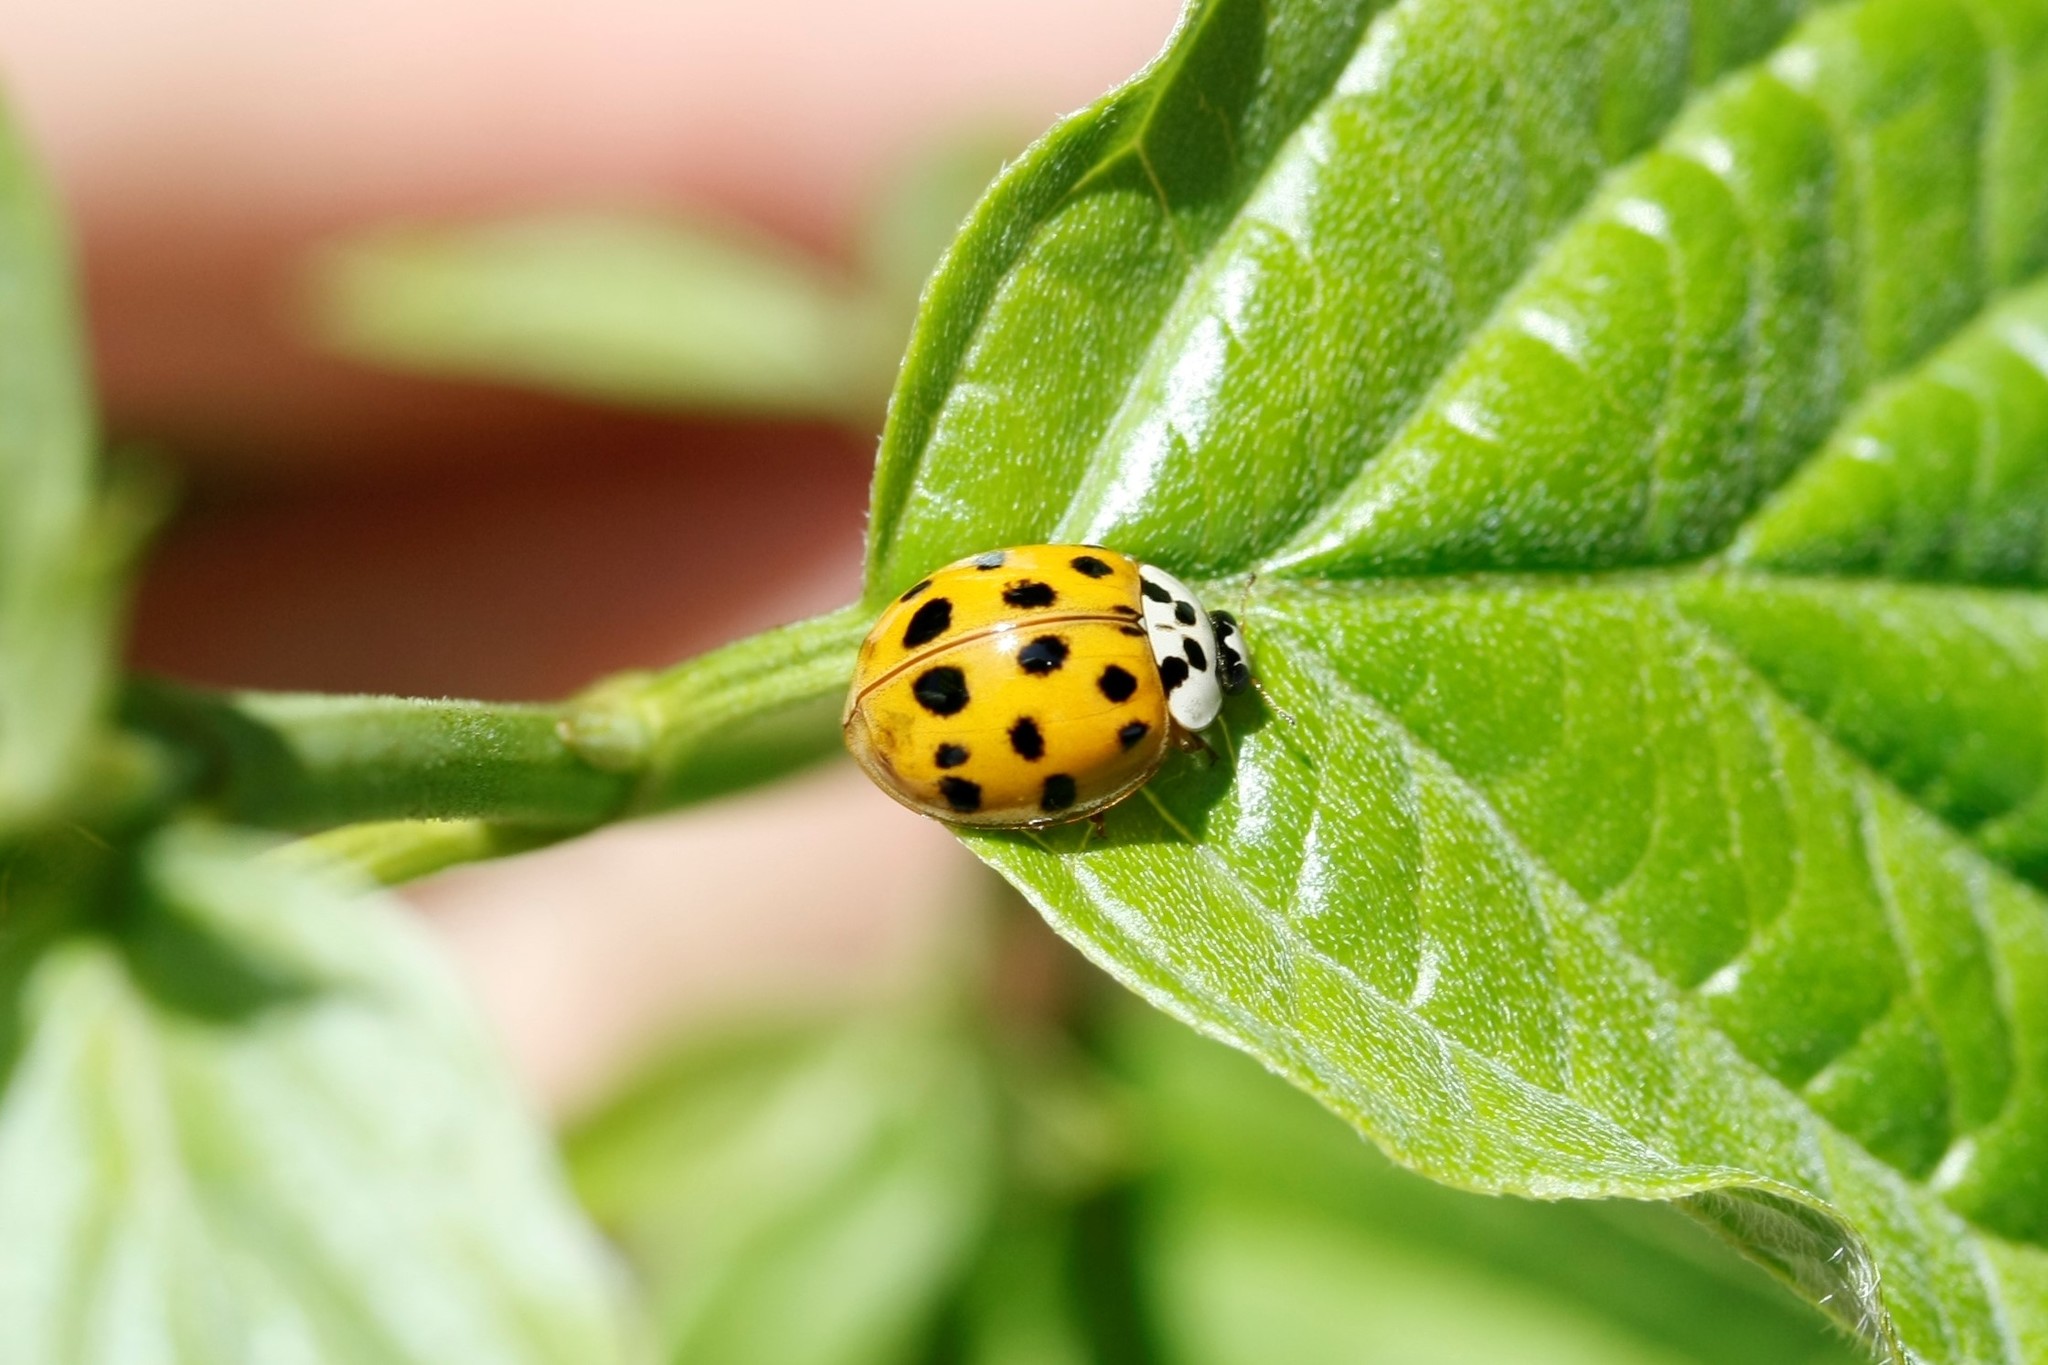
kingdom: Animalia
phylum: Arthropoda
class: Insecta
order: Coleoptera
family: Coccinellidae
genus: Harmonia
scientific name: Harmonia axyridis
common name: Harlequin ladybird
